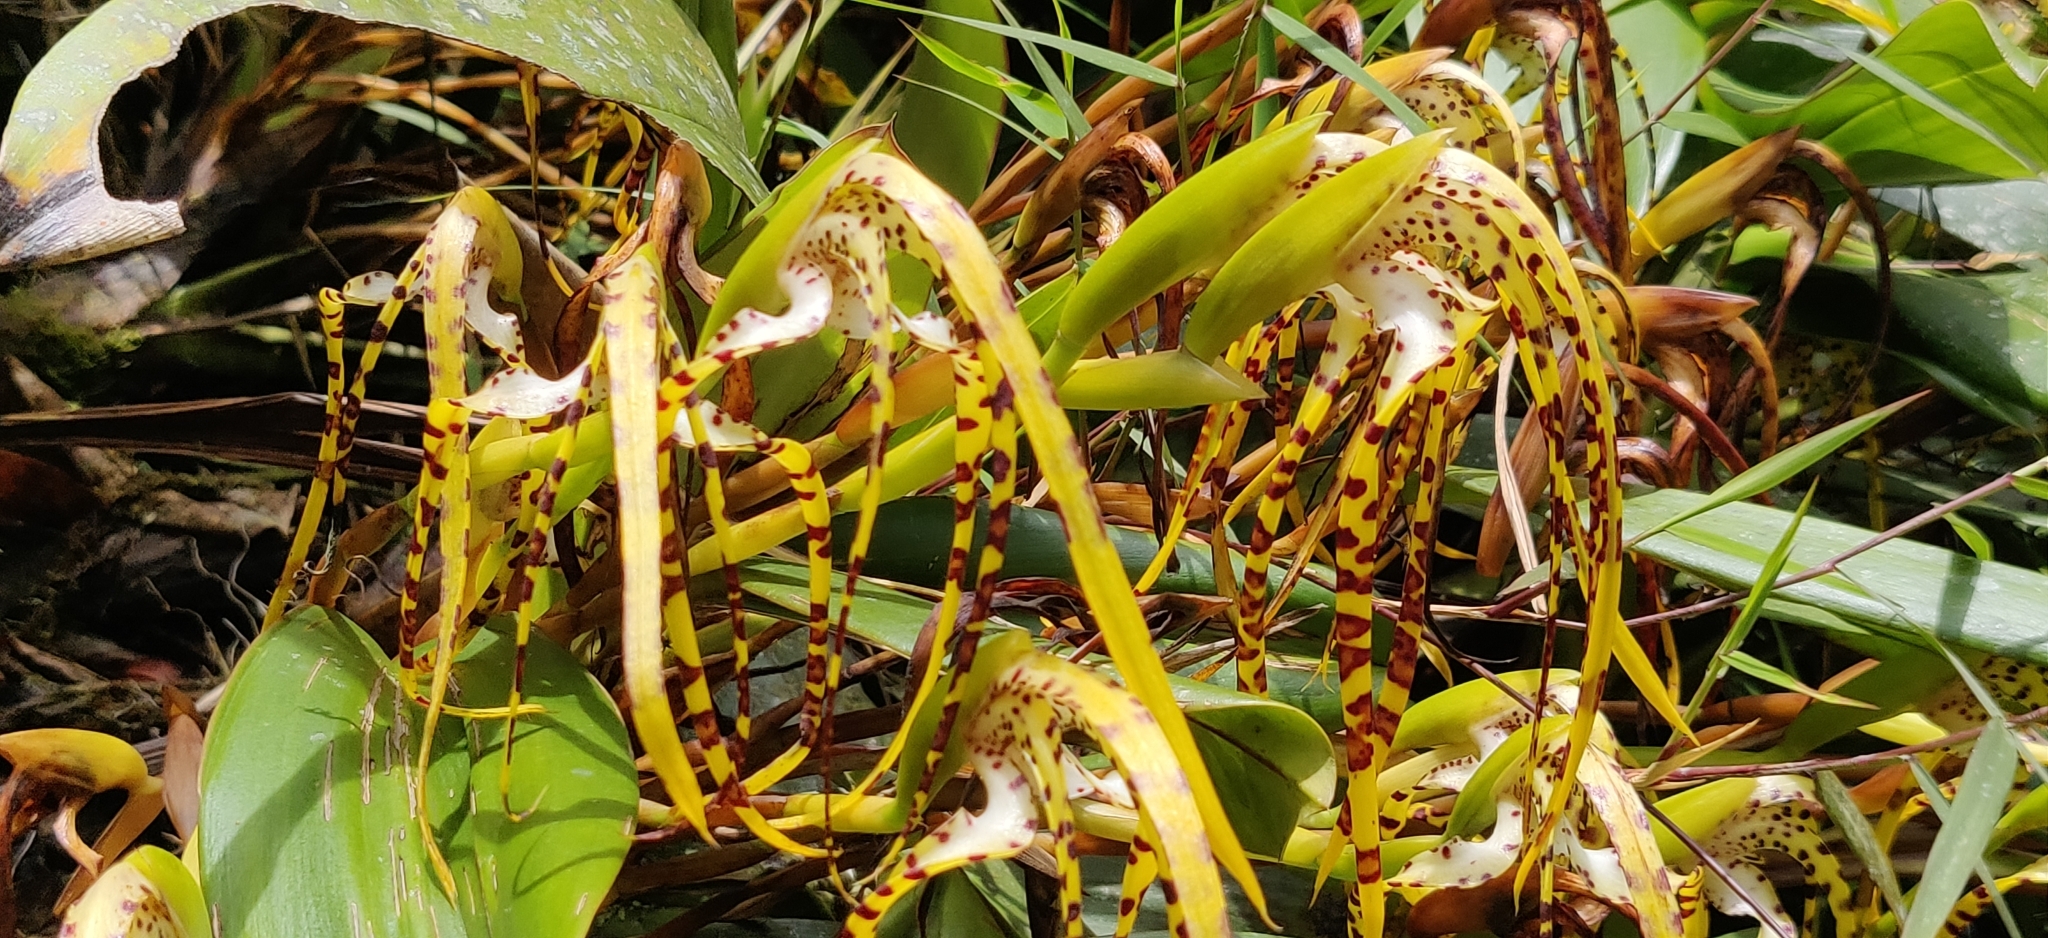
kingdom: Plantae
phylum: Tracheophyta
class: Liliopsida
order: Asparagales
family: Orchidaceae
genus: Maxillaria
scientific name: Maxillaria speciosa
